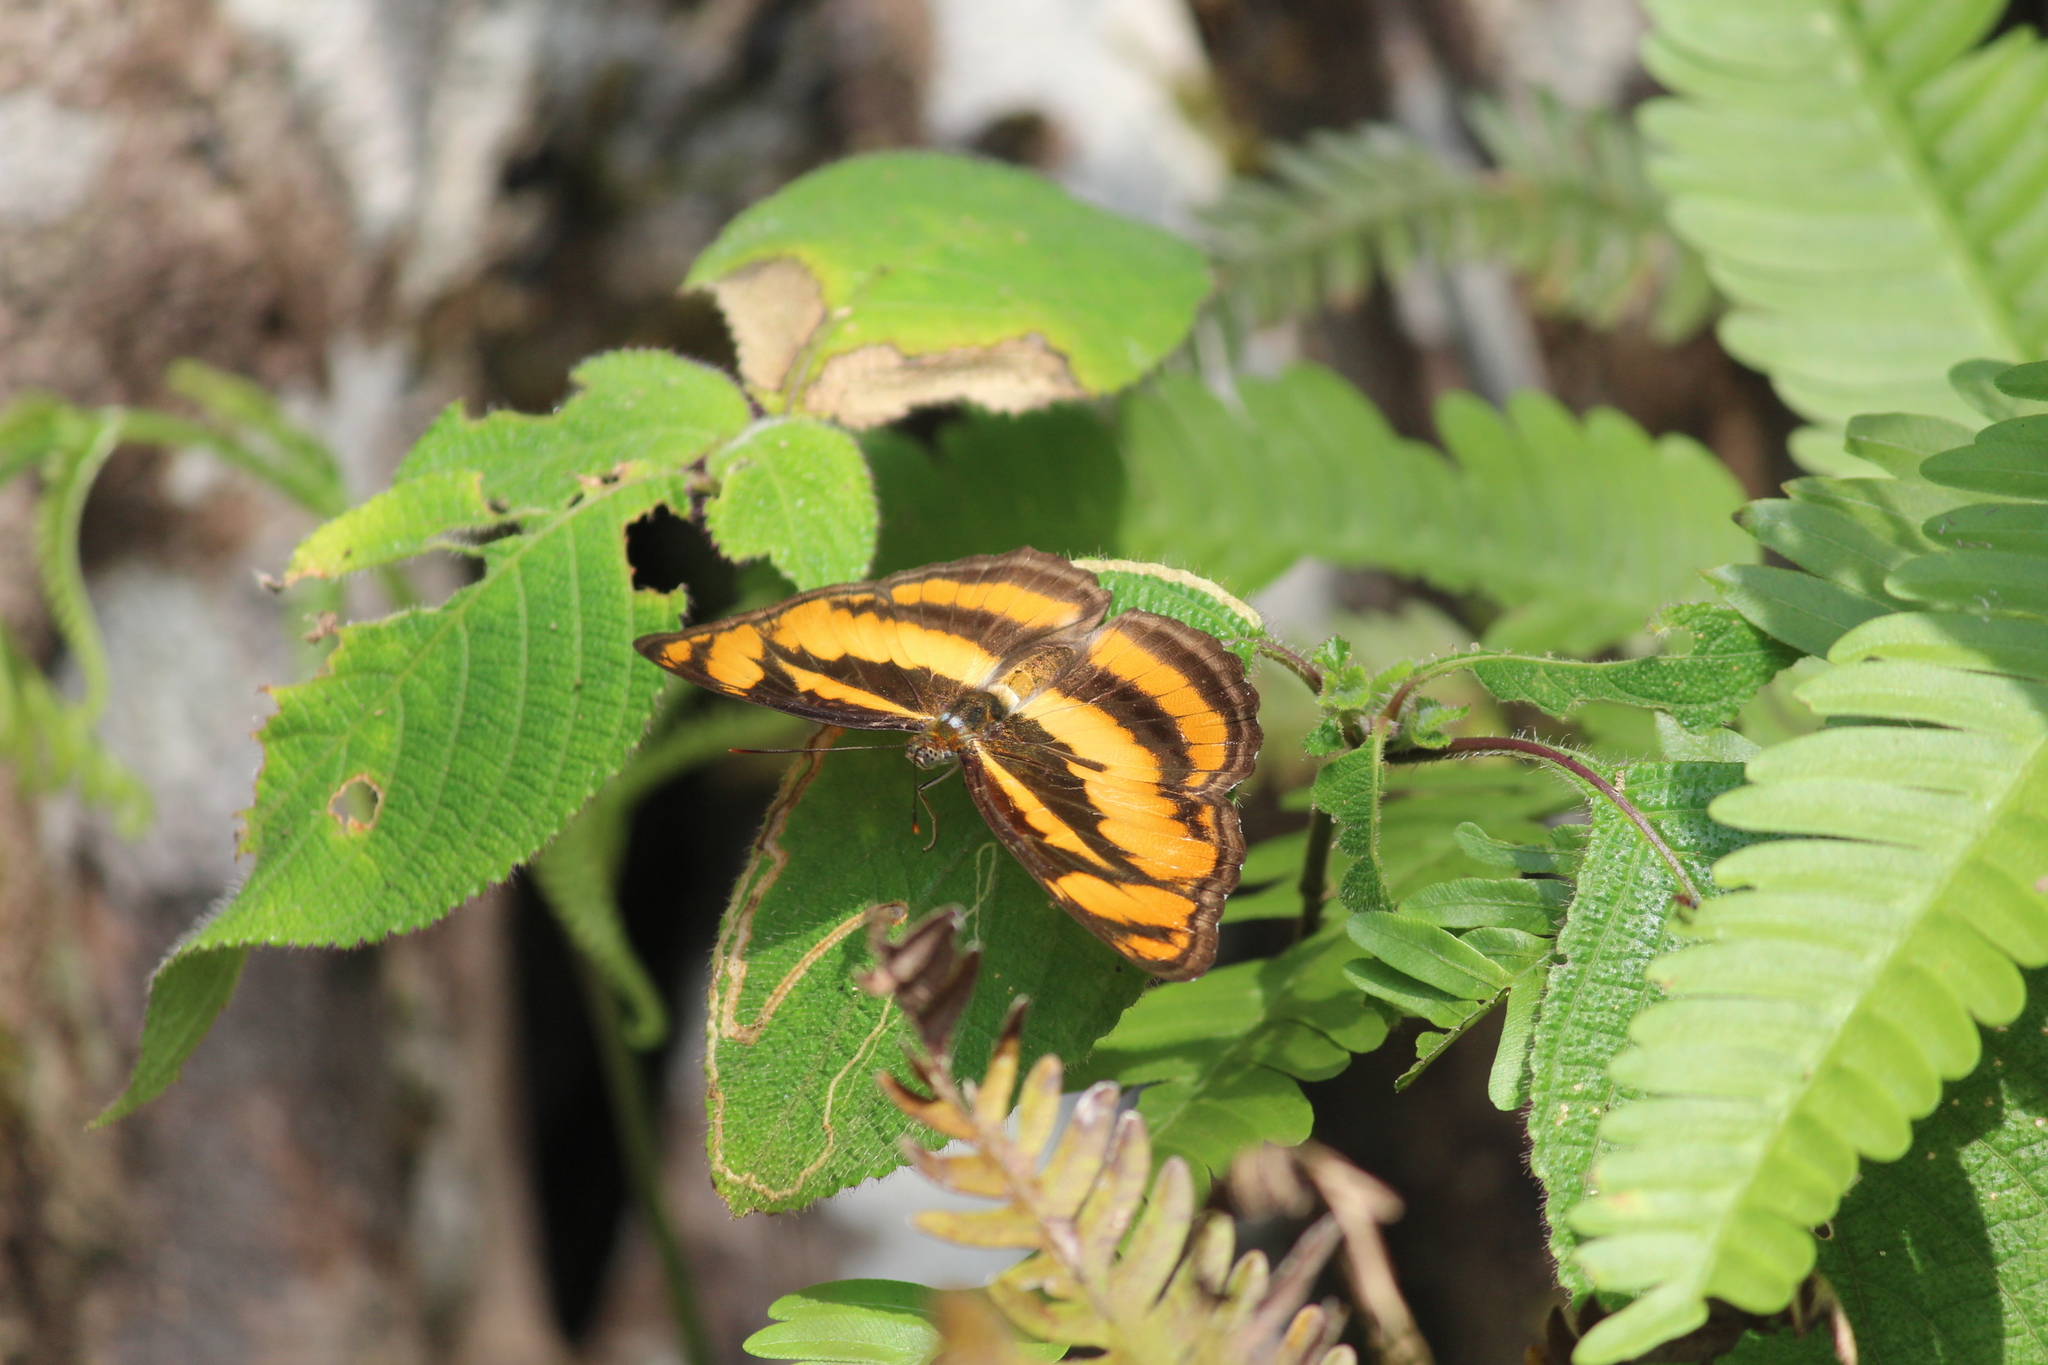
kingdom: Animalia
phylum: Arthropoda
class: Insecta
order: Lepidoptera
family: Nymphalidae
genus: Parathyma
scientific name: Parathyma nefte
